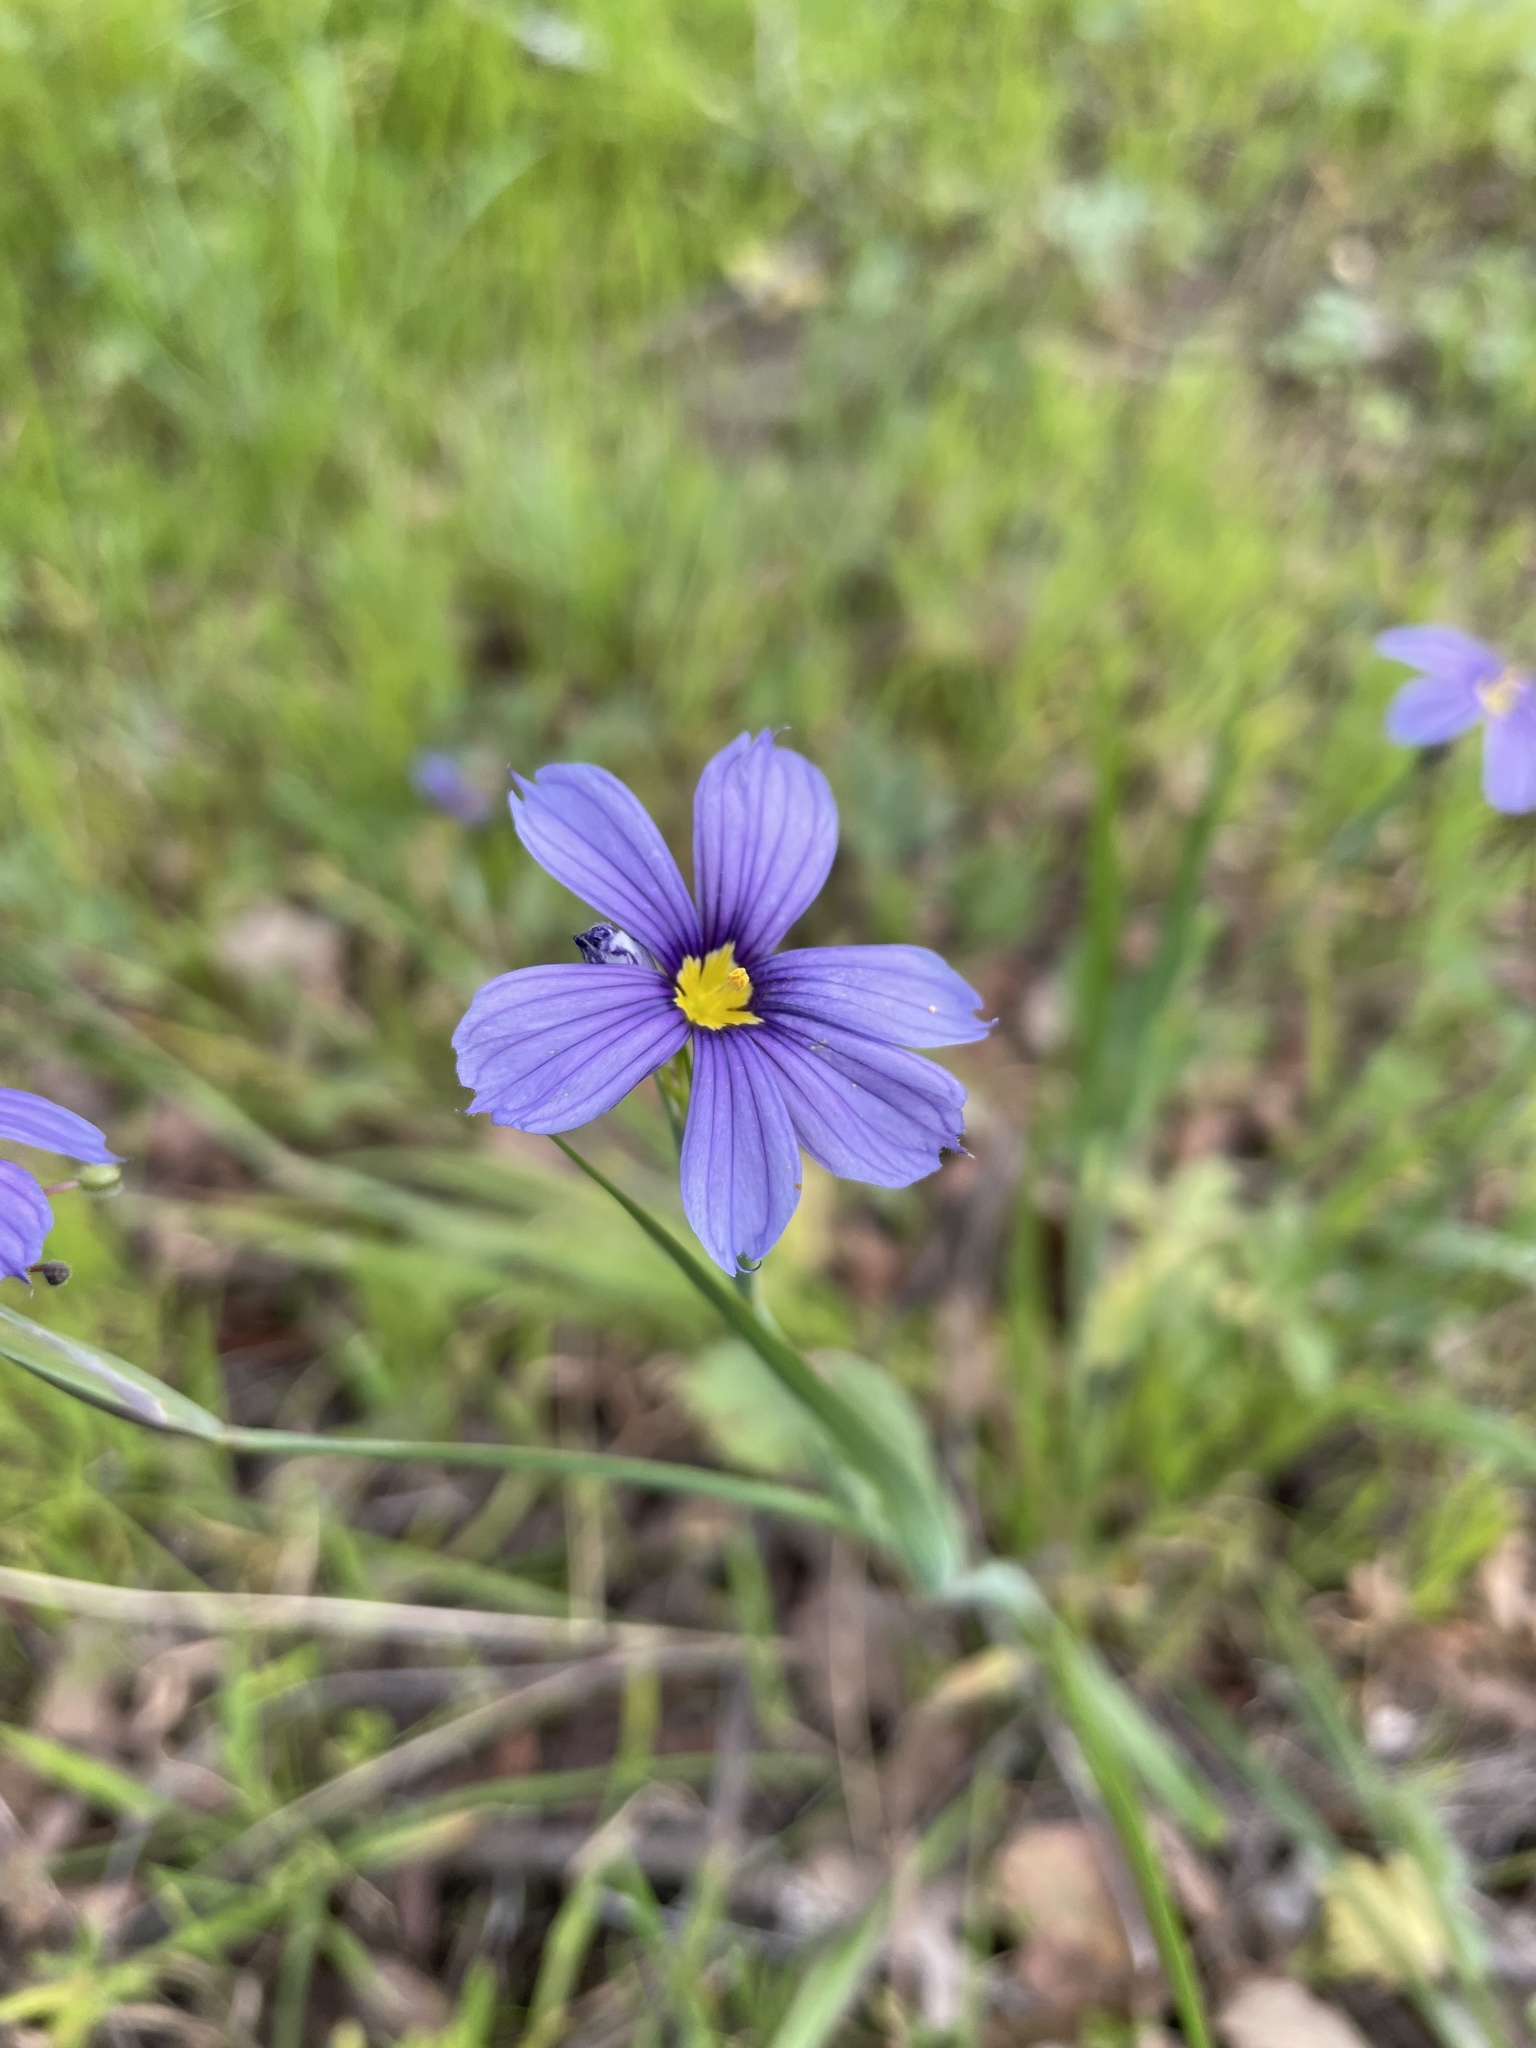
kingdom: Plantae
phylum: Tracheophyta
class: Liliopsida
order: Asparagales
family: Iridaceae
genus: Sisyrinchium
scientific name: Sisyrinchium bellum
